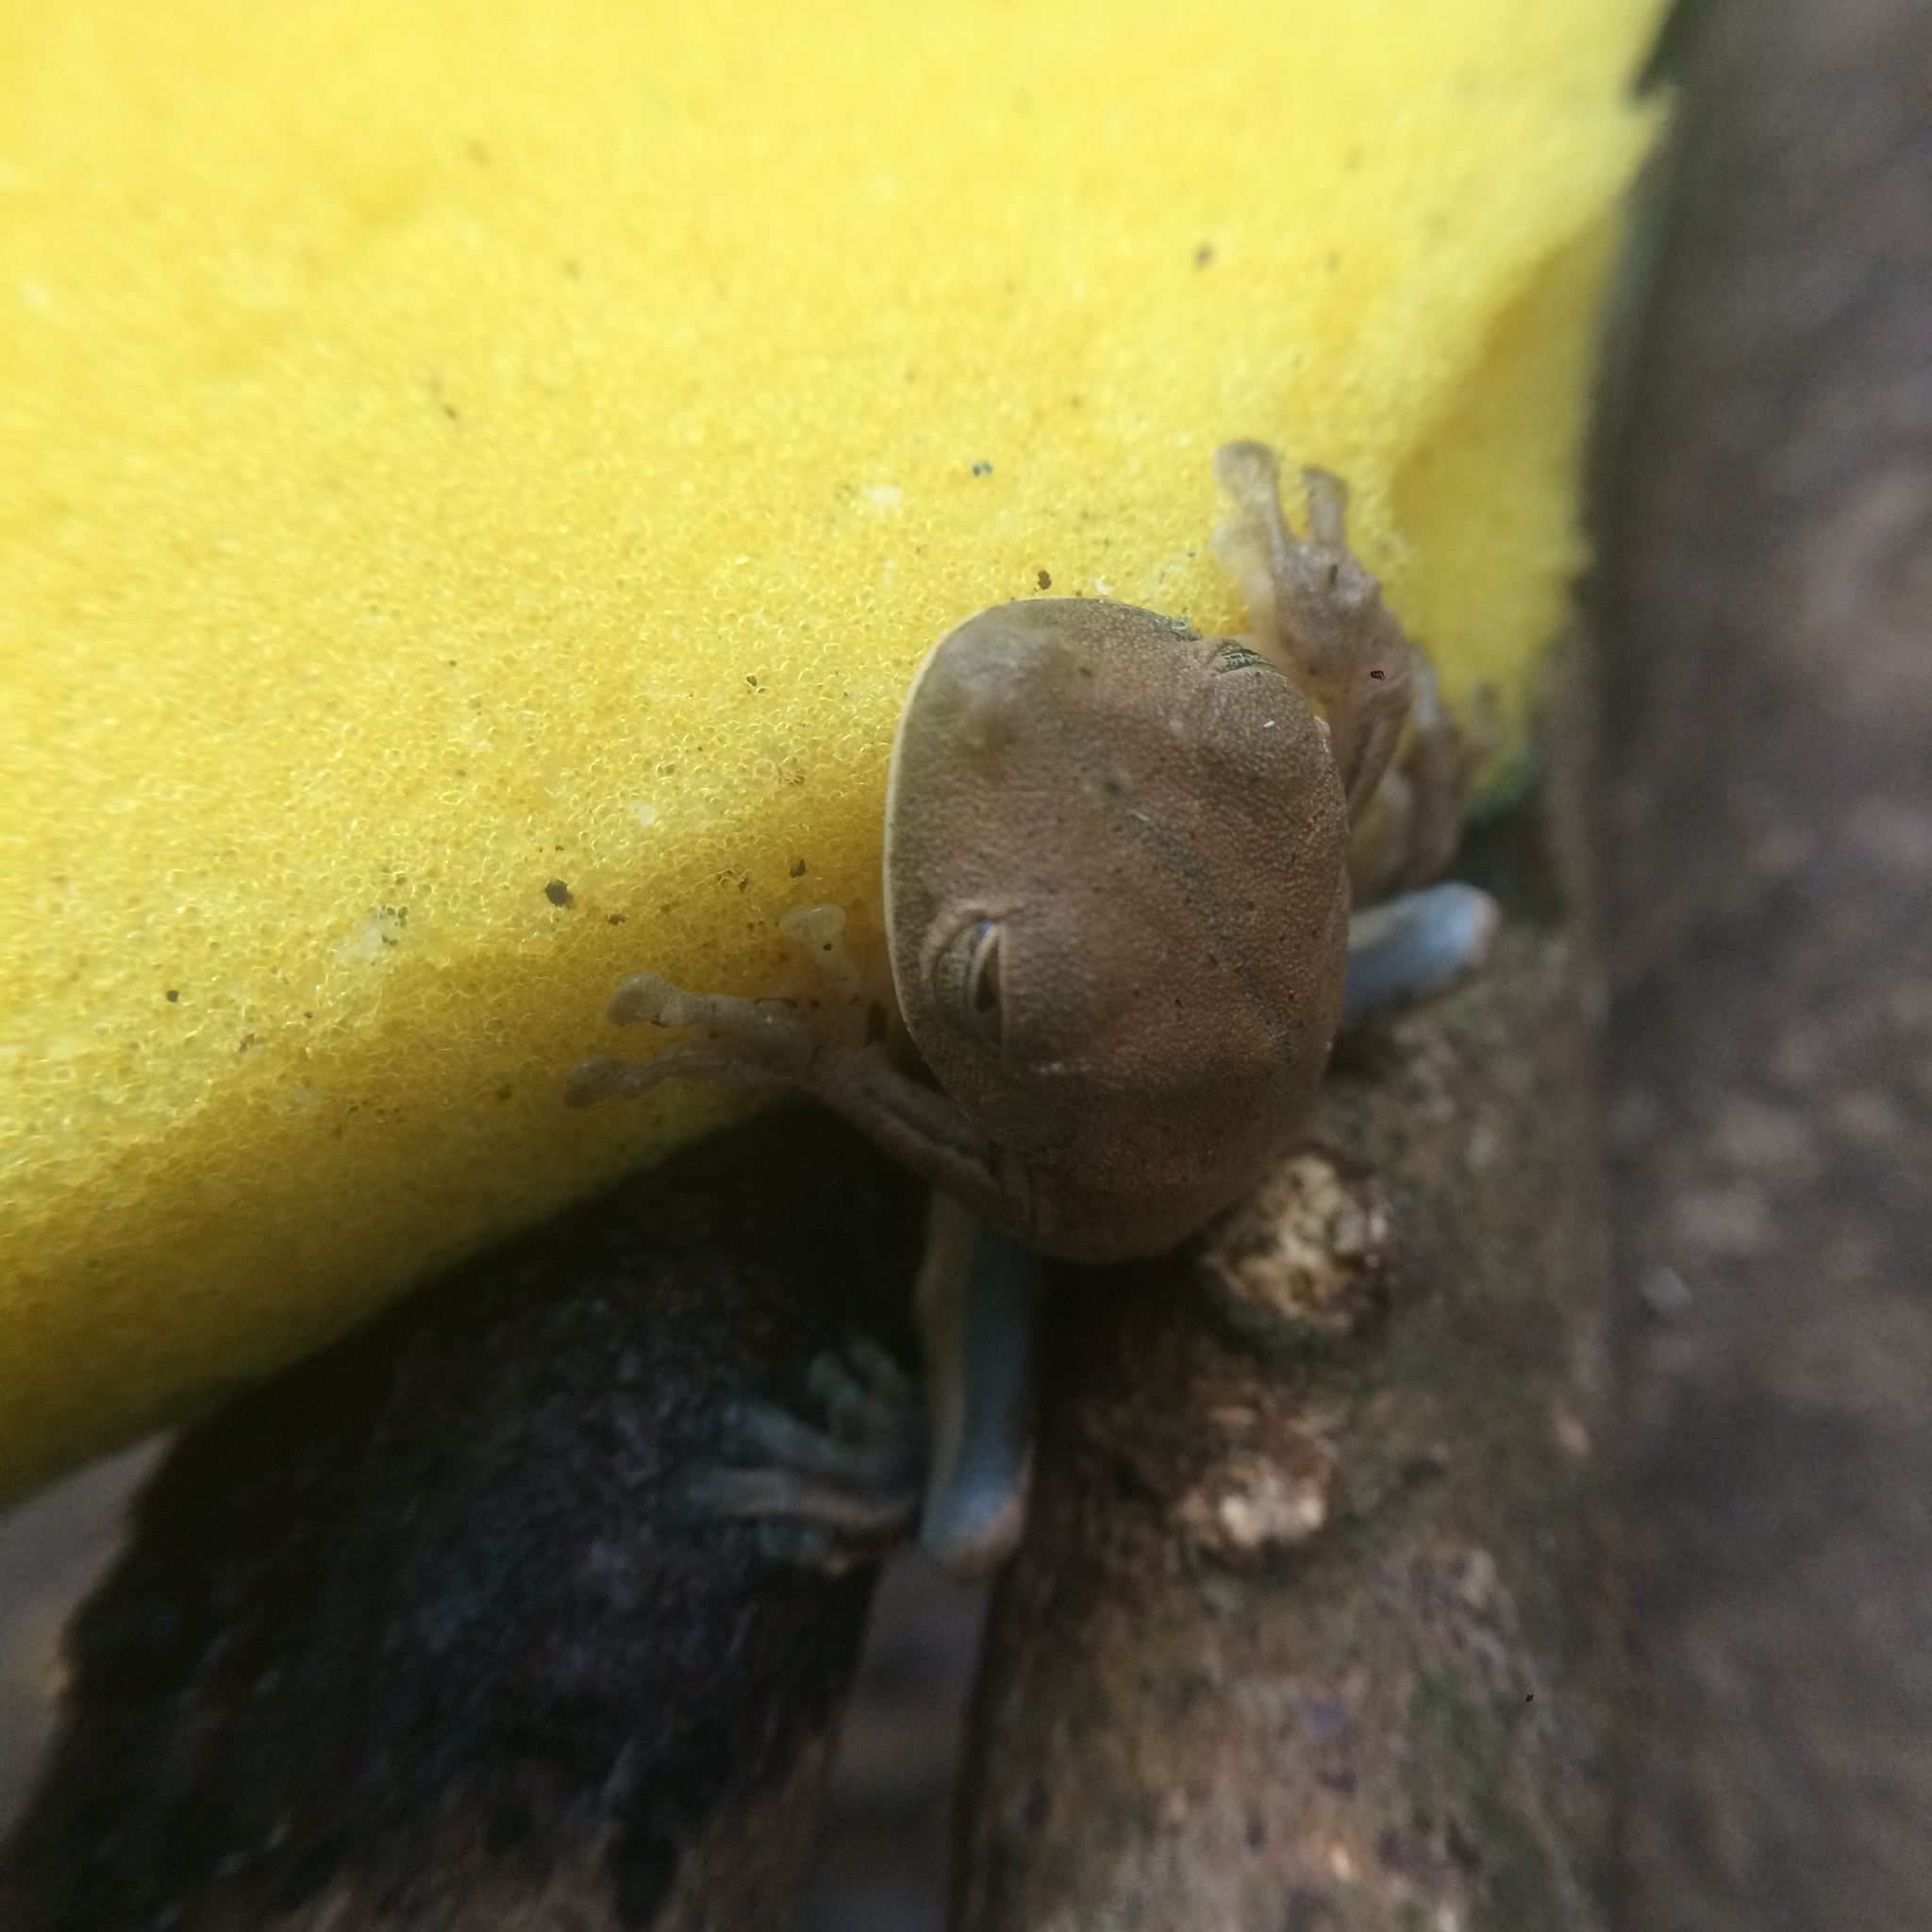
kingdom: Animalia
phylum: Chordata
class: Amphibia
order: Anura
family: Hylidae
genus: Boana
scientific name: Boana semilineata
